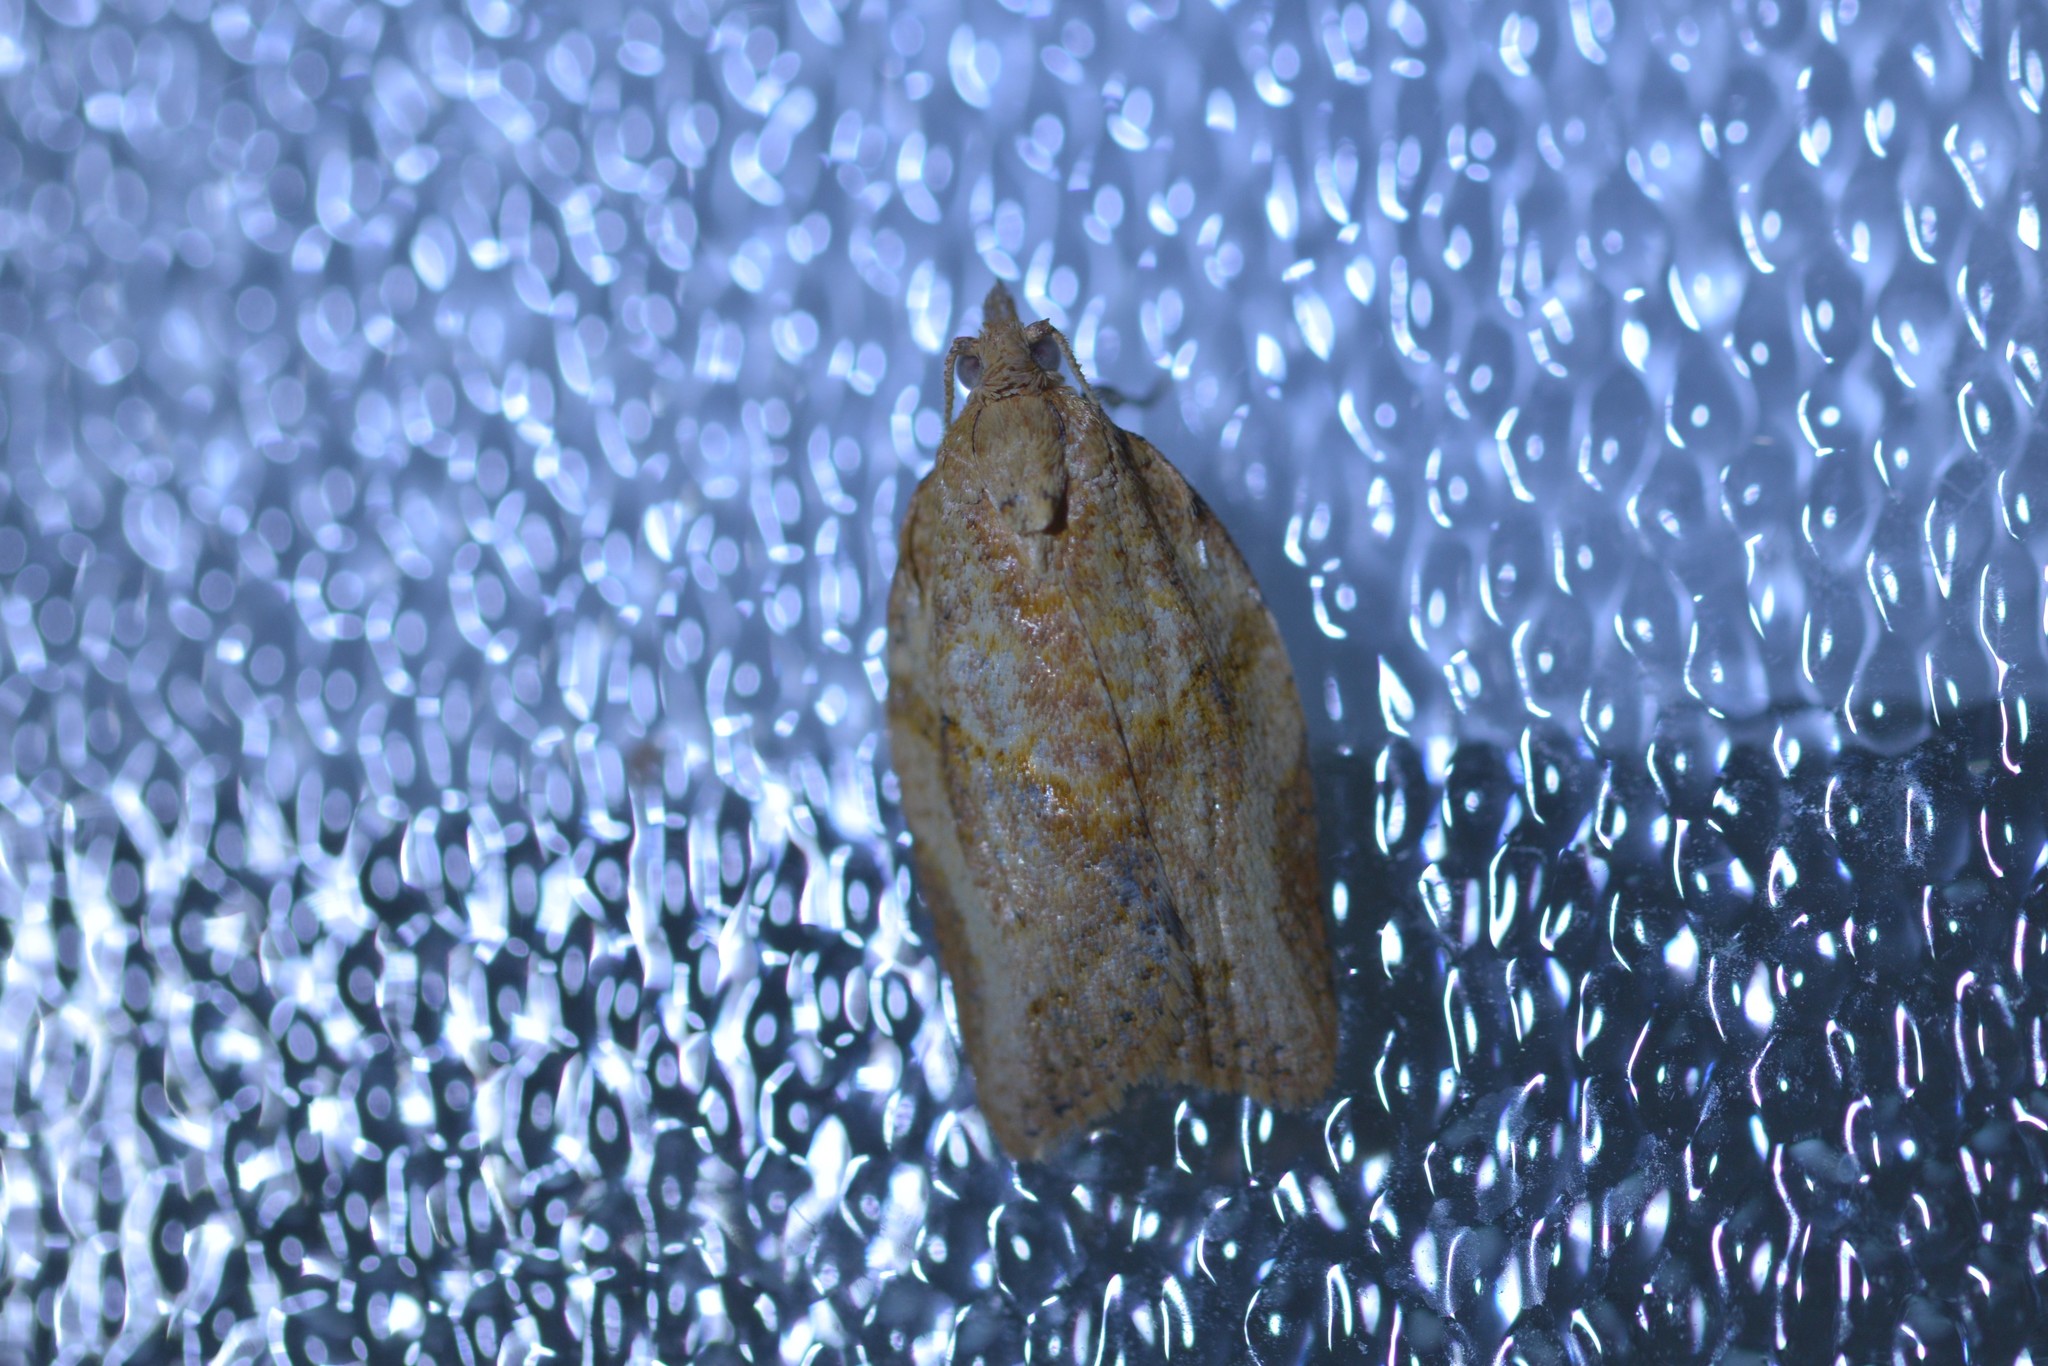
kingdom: Animalia
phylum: Arthropoda
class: Insecta
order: Lepidoptera
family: Tortricidae
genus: Epiphyas
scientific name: Epiphyas postvittana
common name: Light brown apple moth
